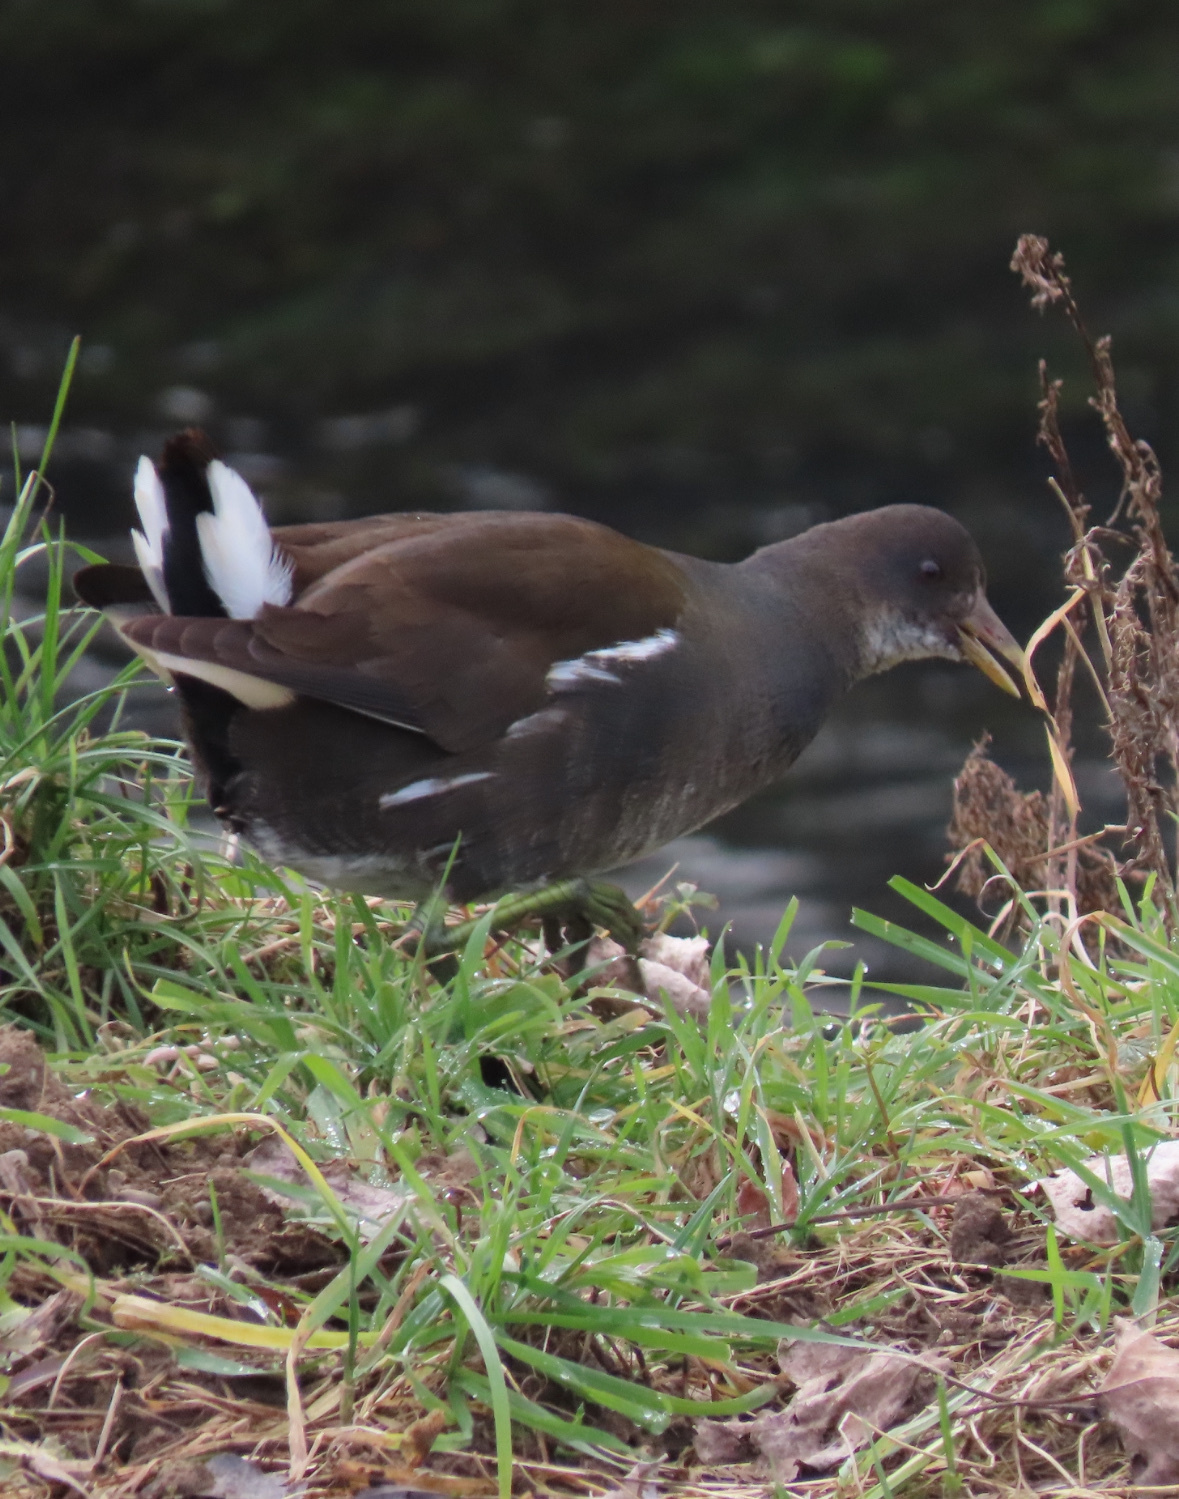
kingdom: Animalia
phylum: Chordata
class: Aves
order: Gruiformes
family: Rallidae
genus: Gallinula
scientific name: Gallinula chloropus
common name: Common moorhen
